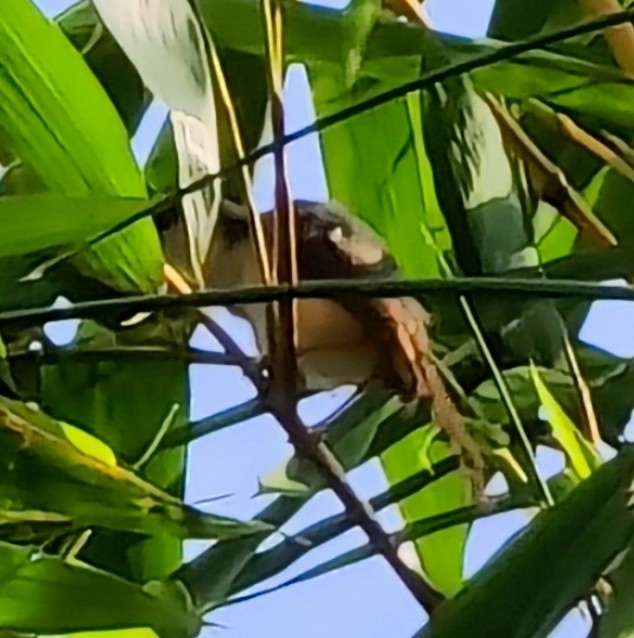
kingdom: Animalia
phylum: Chordata
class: Aves
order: Passeriformes
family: Cisticolidae
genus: Prinia
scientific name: Prinia socialis
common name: Ashy prinia
